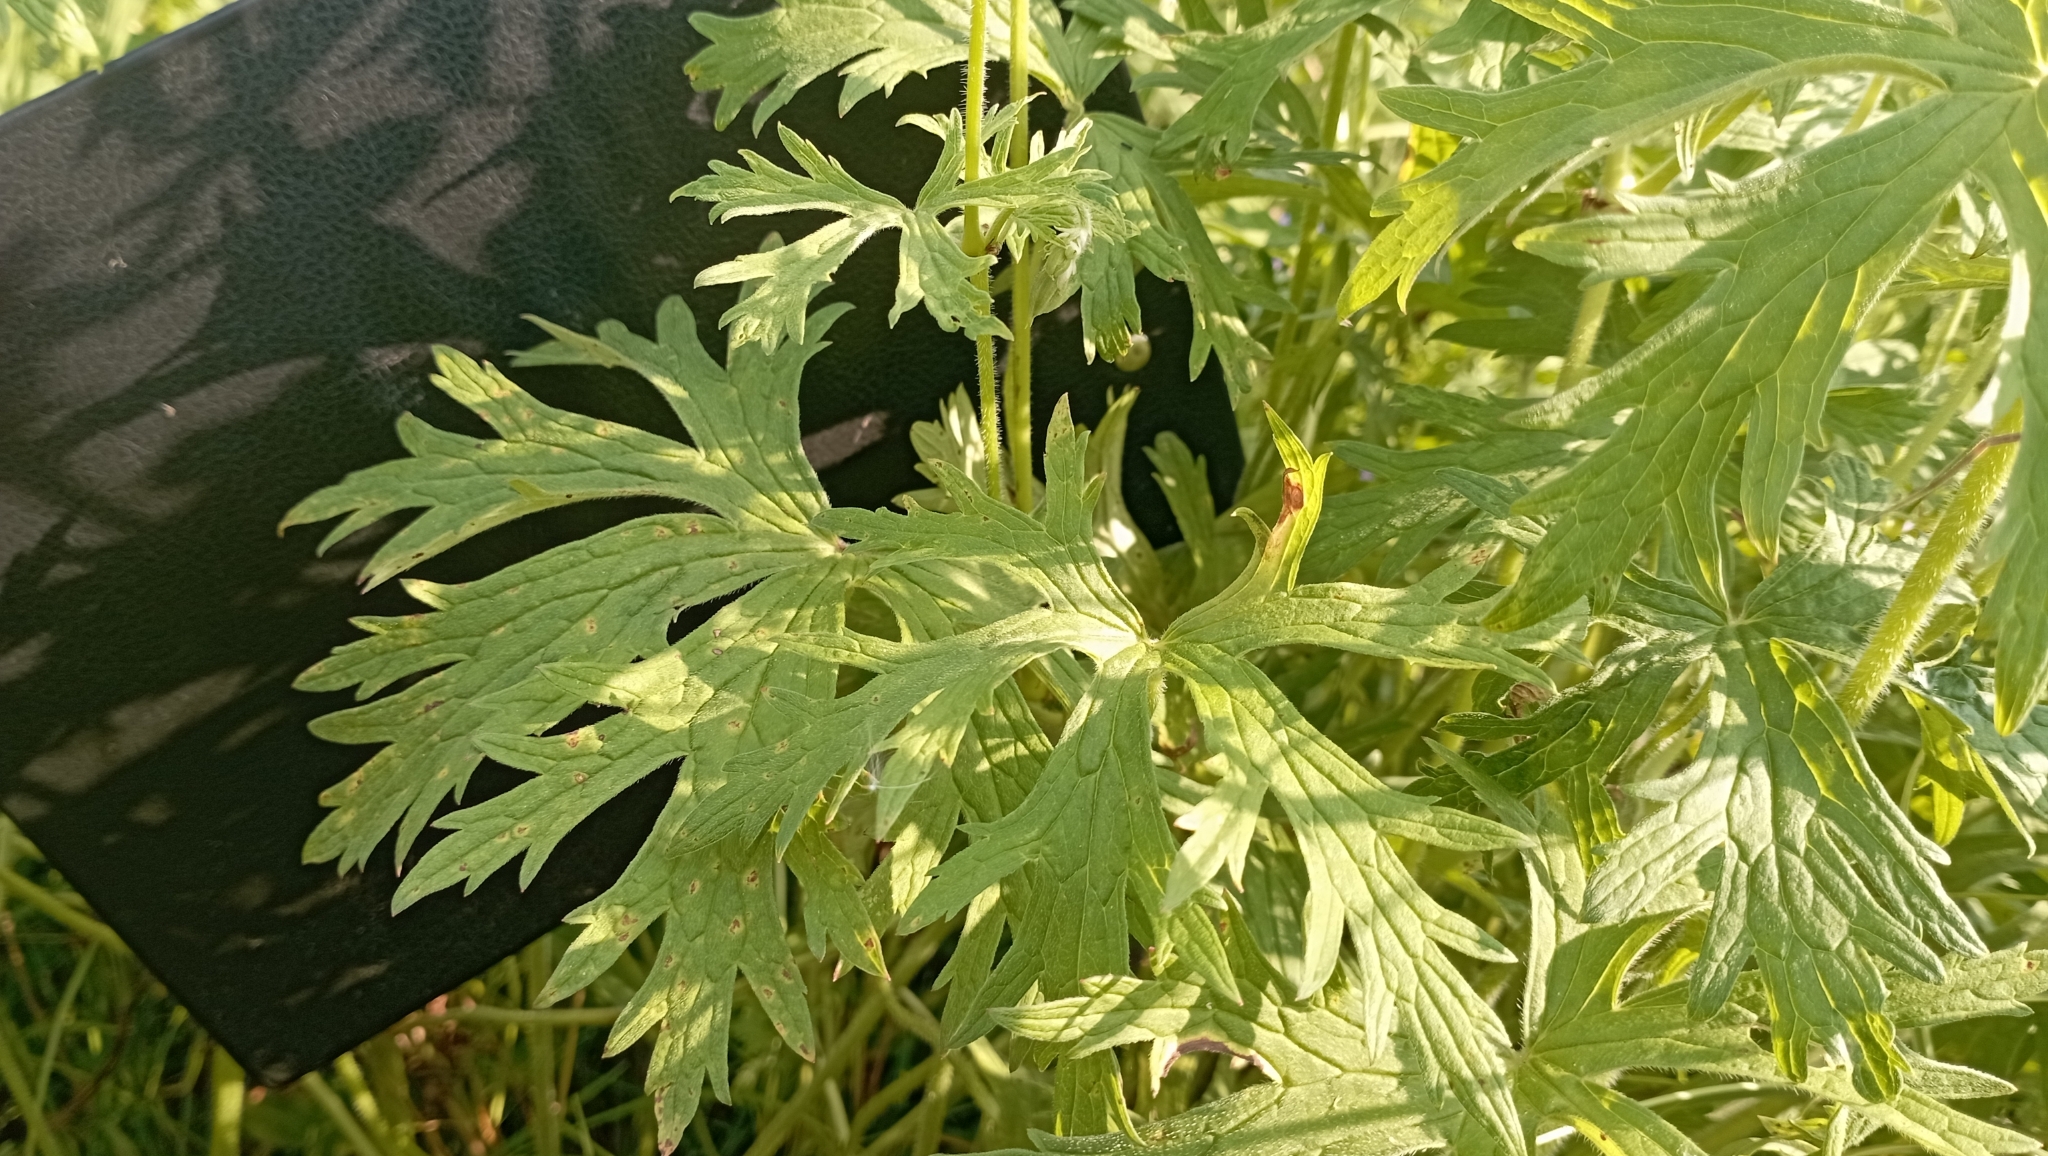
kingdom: Plantae
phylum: Tracheophyta
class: Magnoliopsida
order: Geraniales
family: Geraniaceae
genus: Geranium
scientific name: Geranium pratense
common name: Meadow crane's-bill
